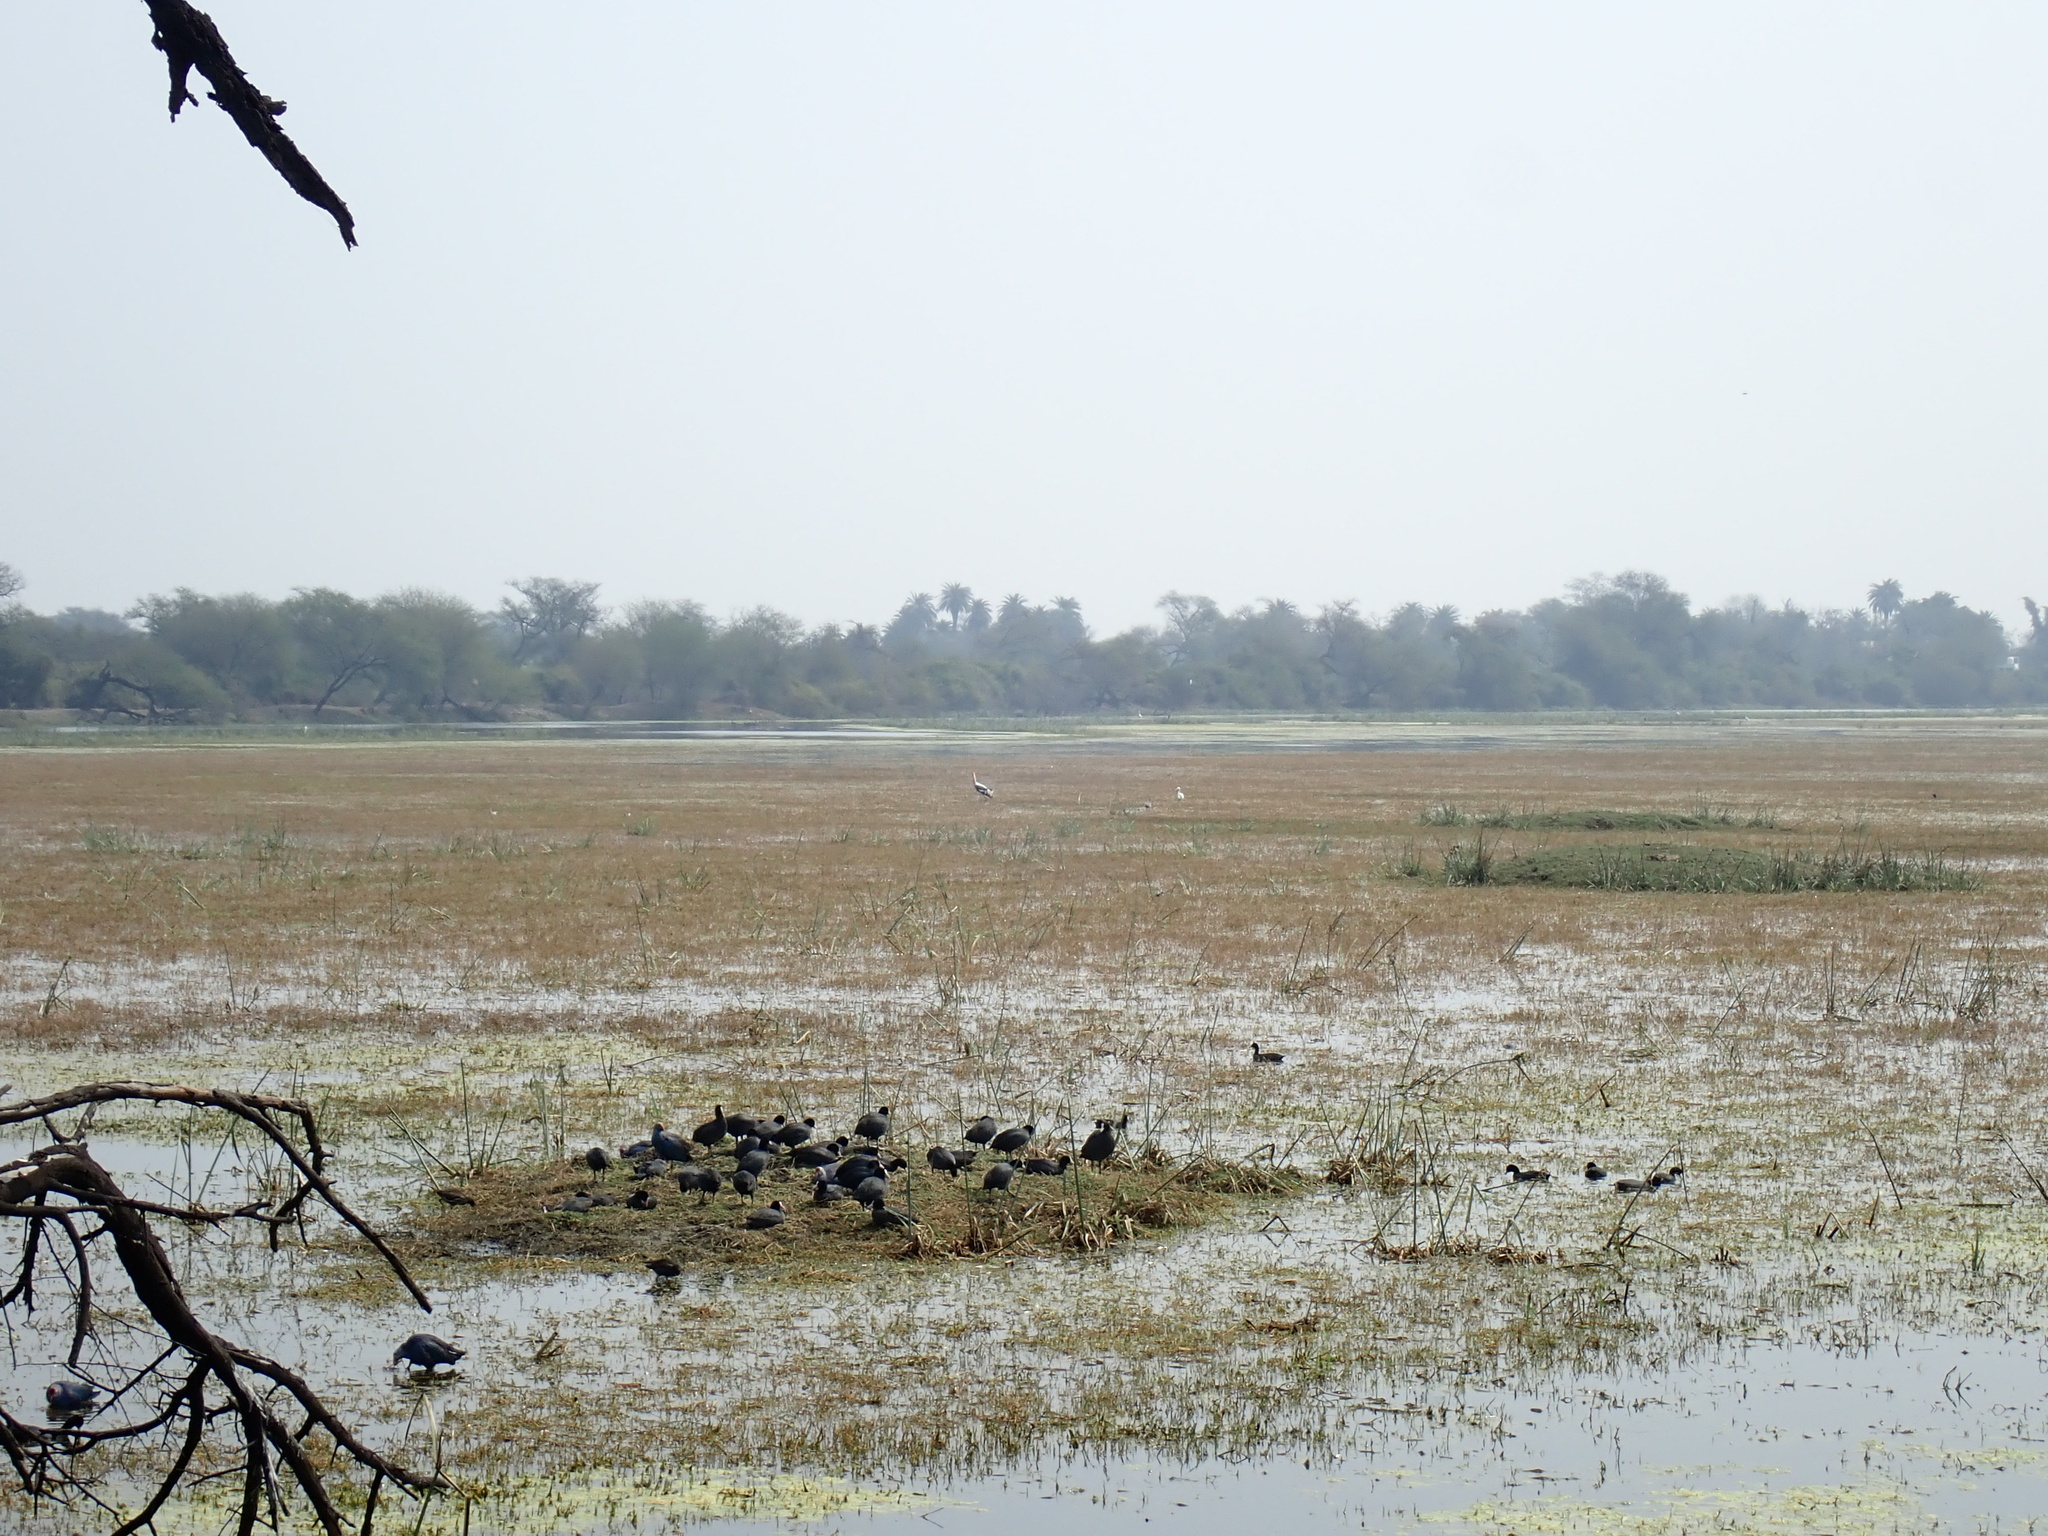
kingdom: Animalia
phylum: Chordata
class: Aves
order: Gruiformes
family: Rallidae
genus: Fulica
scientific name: Fulica atra
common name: Eurasian coot
